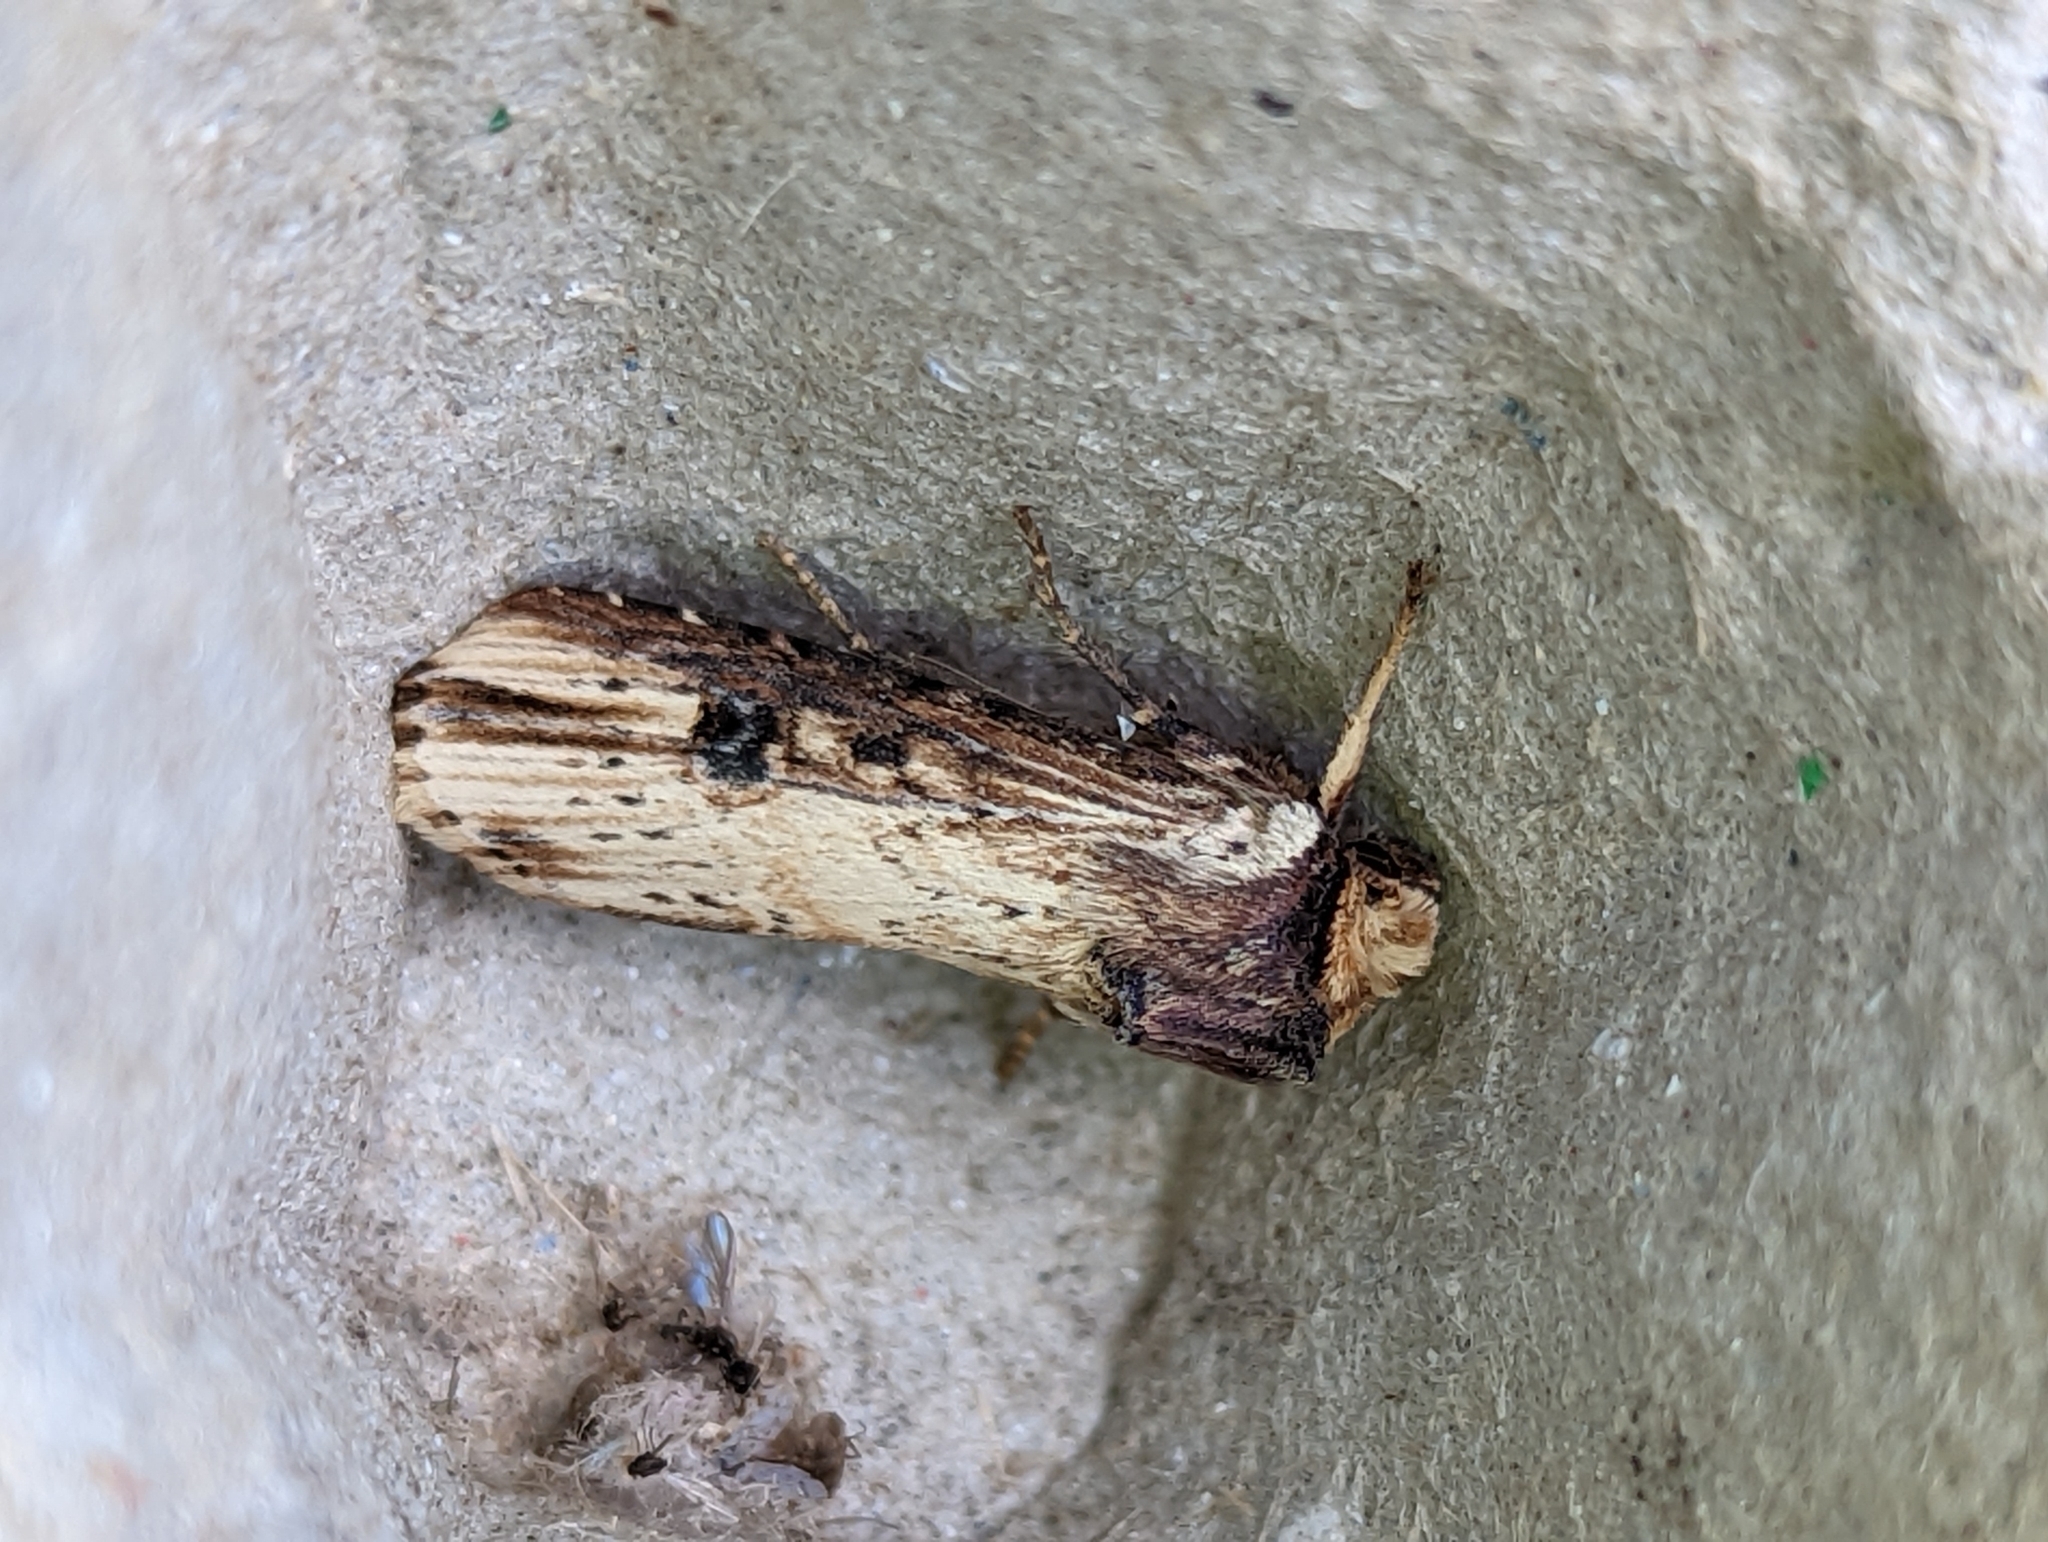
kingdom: Animalia
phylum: Arthropoda
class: Insecta
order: Lepidoptera
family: Noctuidae
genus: Axylia
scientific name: Axylia putris
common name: Flame
